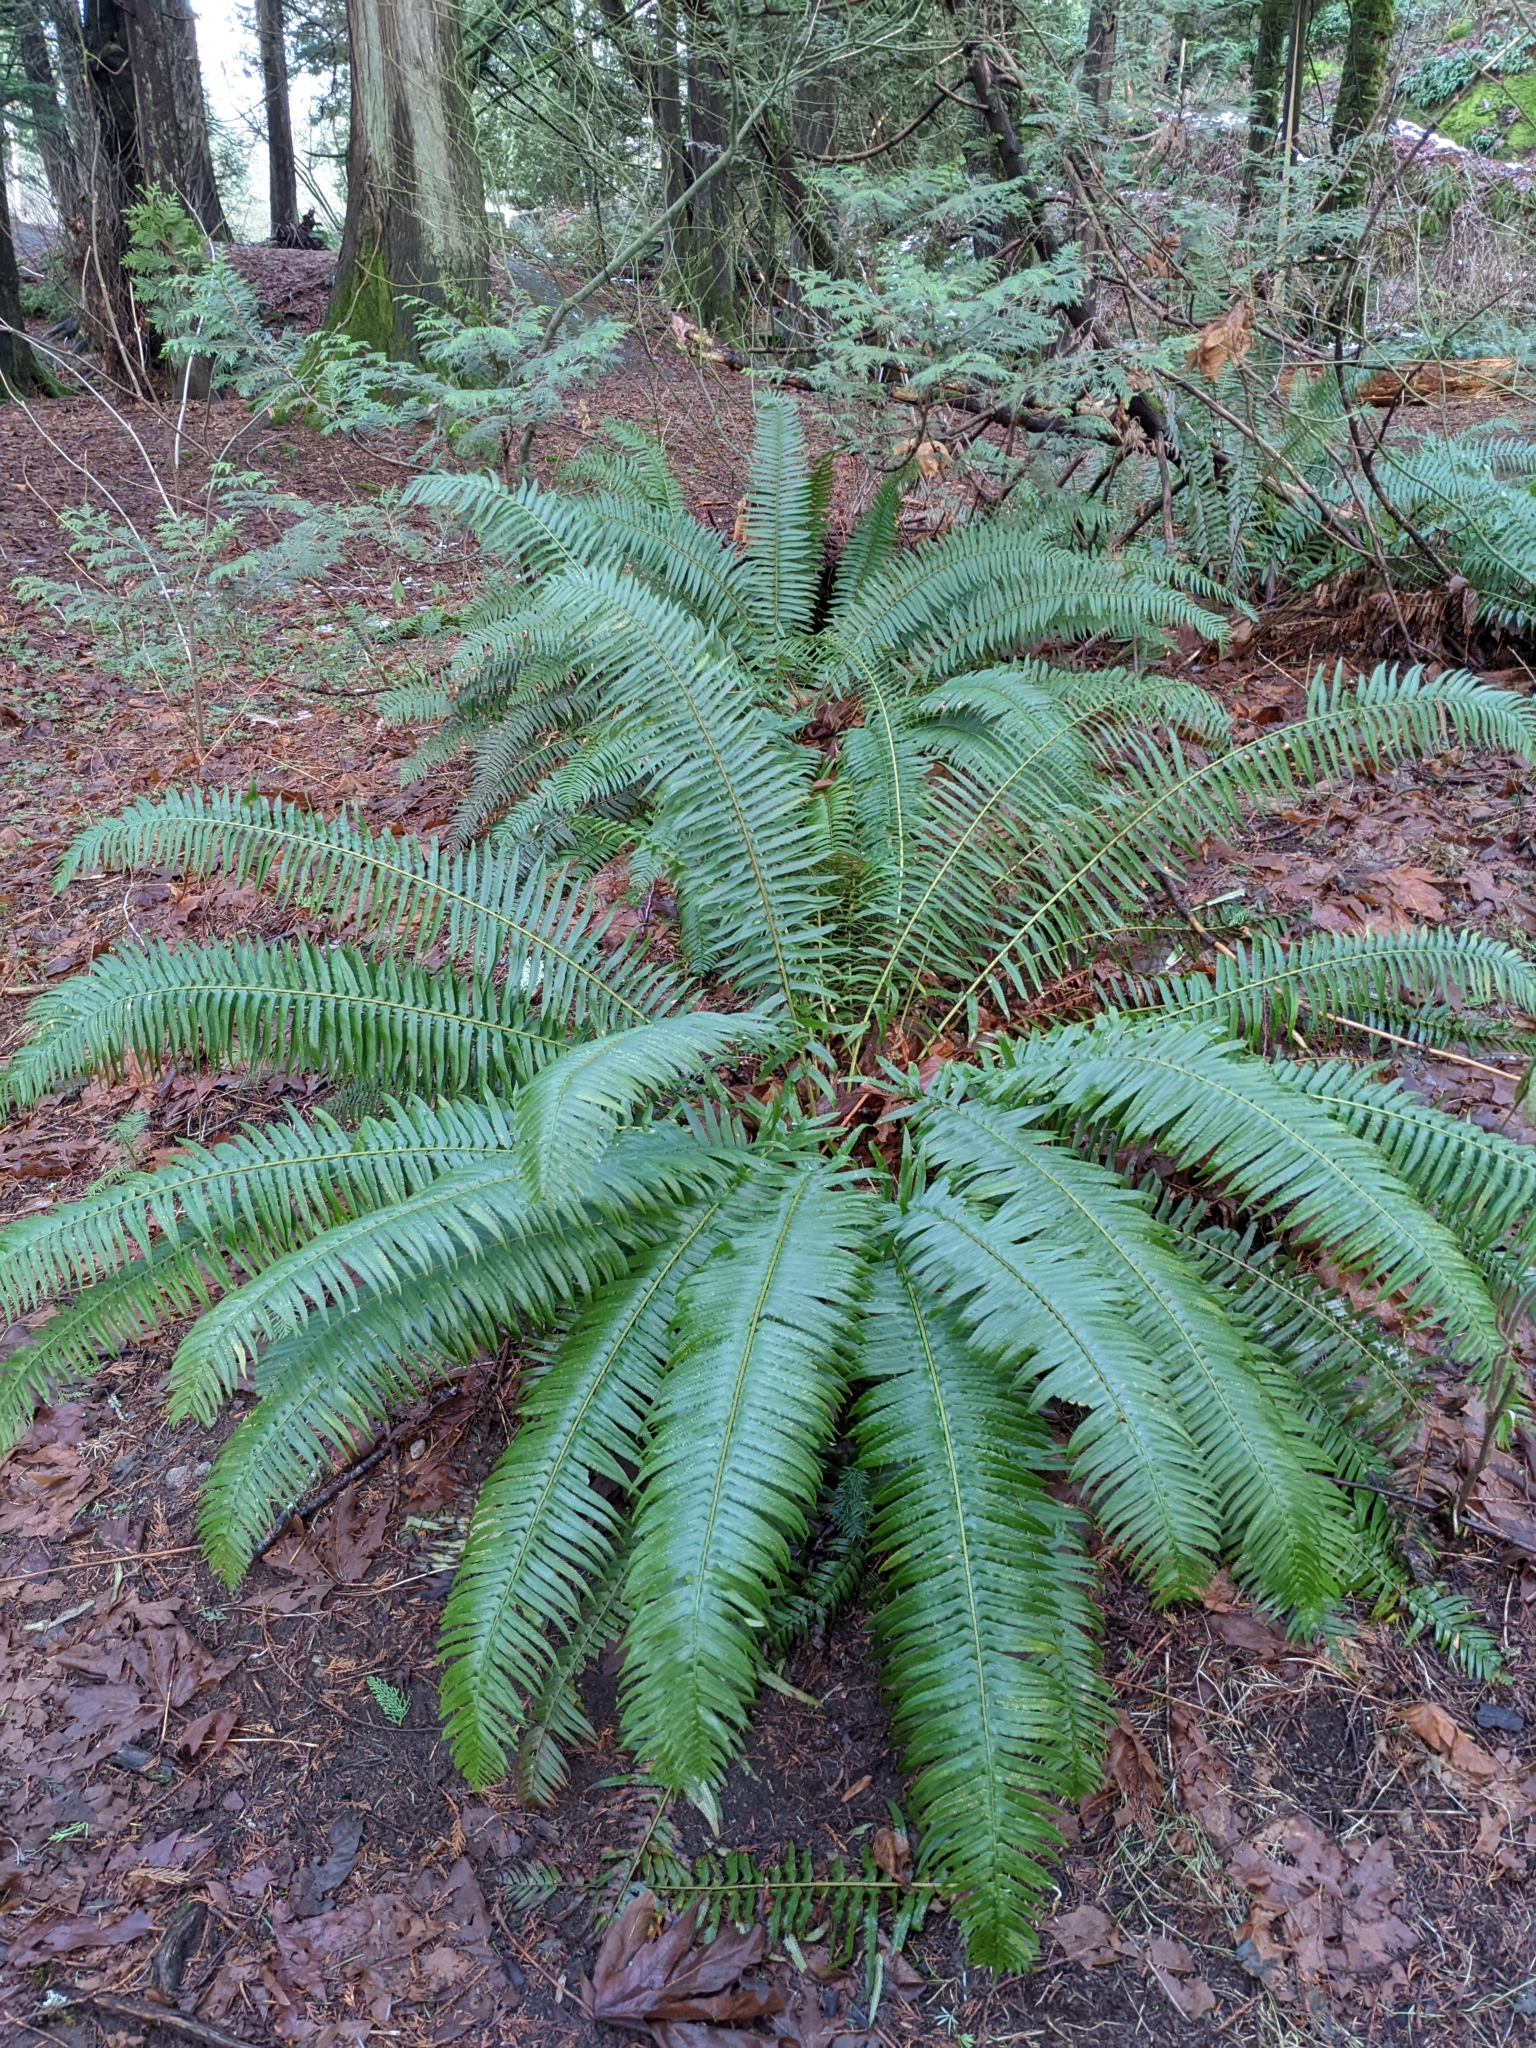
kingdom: Plantae
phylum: Tracheophyta
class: Polypodiopsida
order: Polypodiales
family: Dryopteridaceae
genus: Polystichum
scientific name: Polystichum munitum
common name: Western sword-fern
